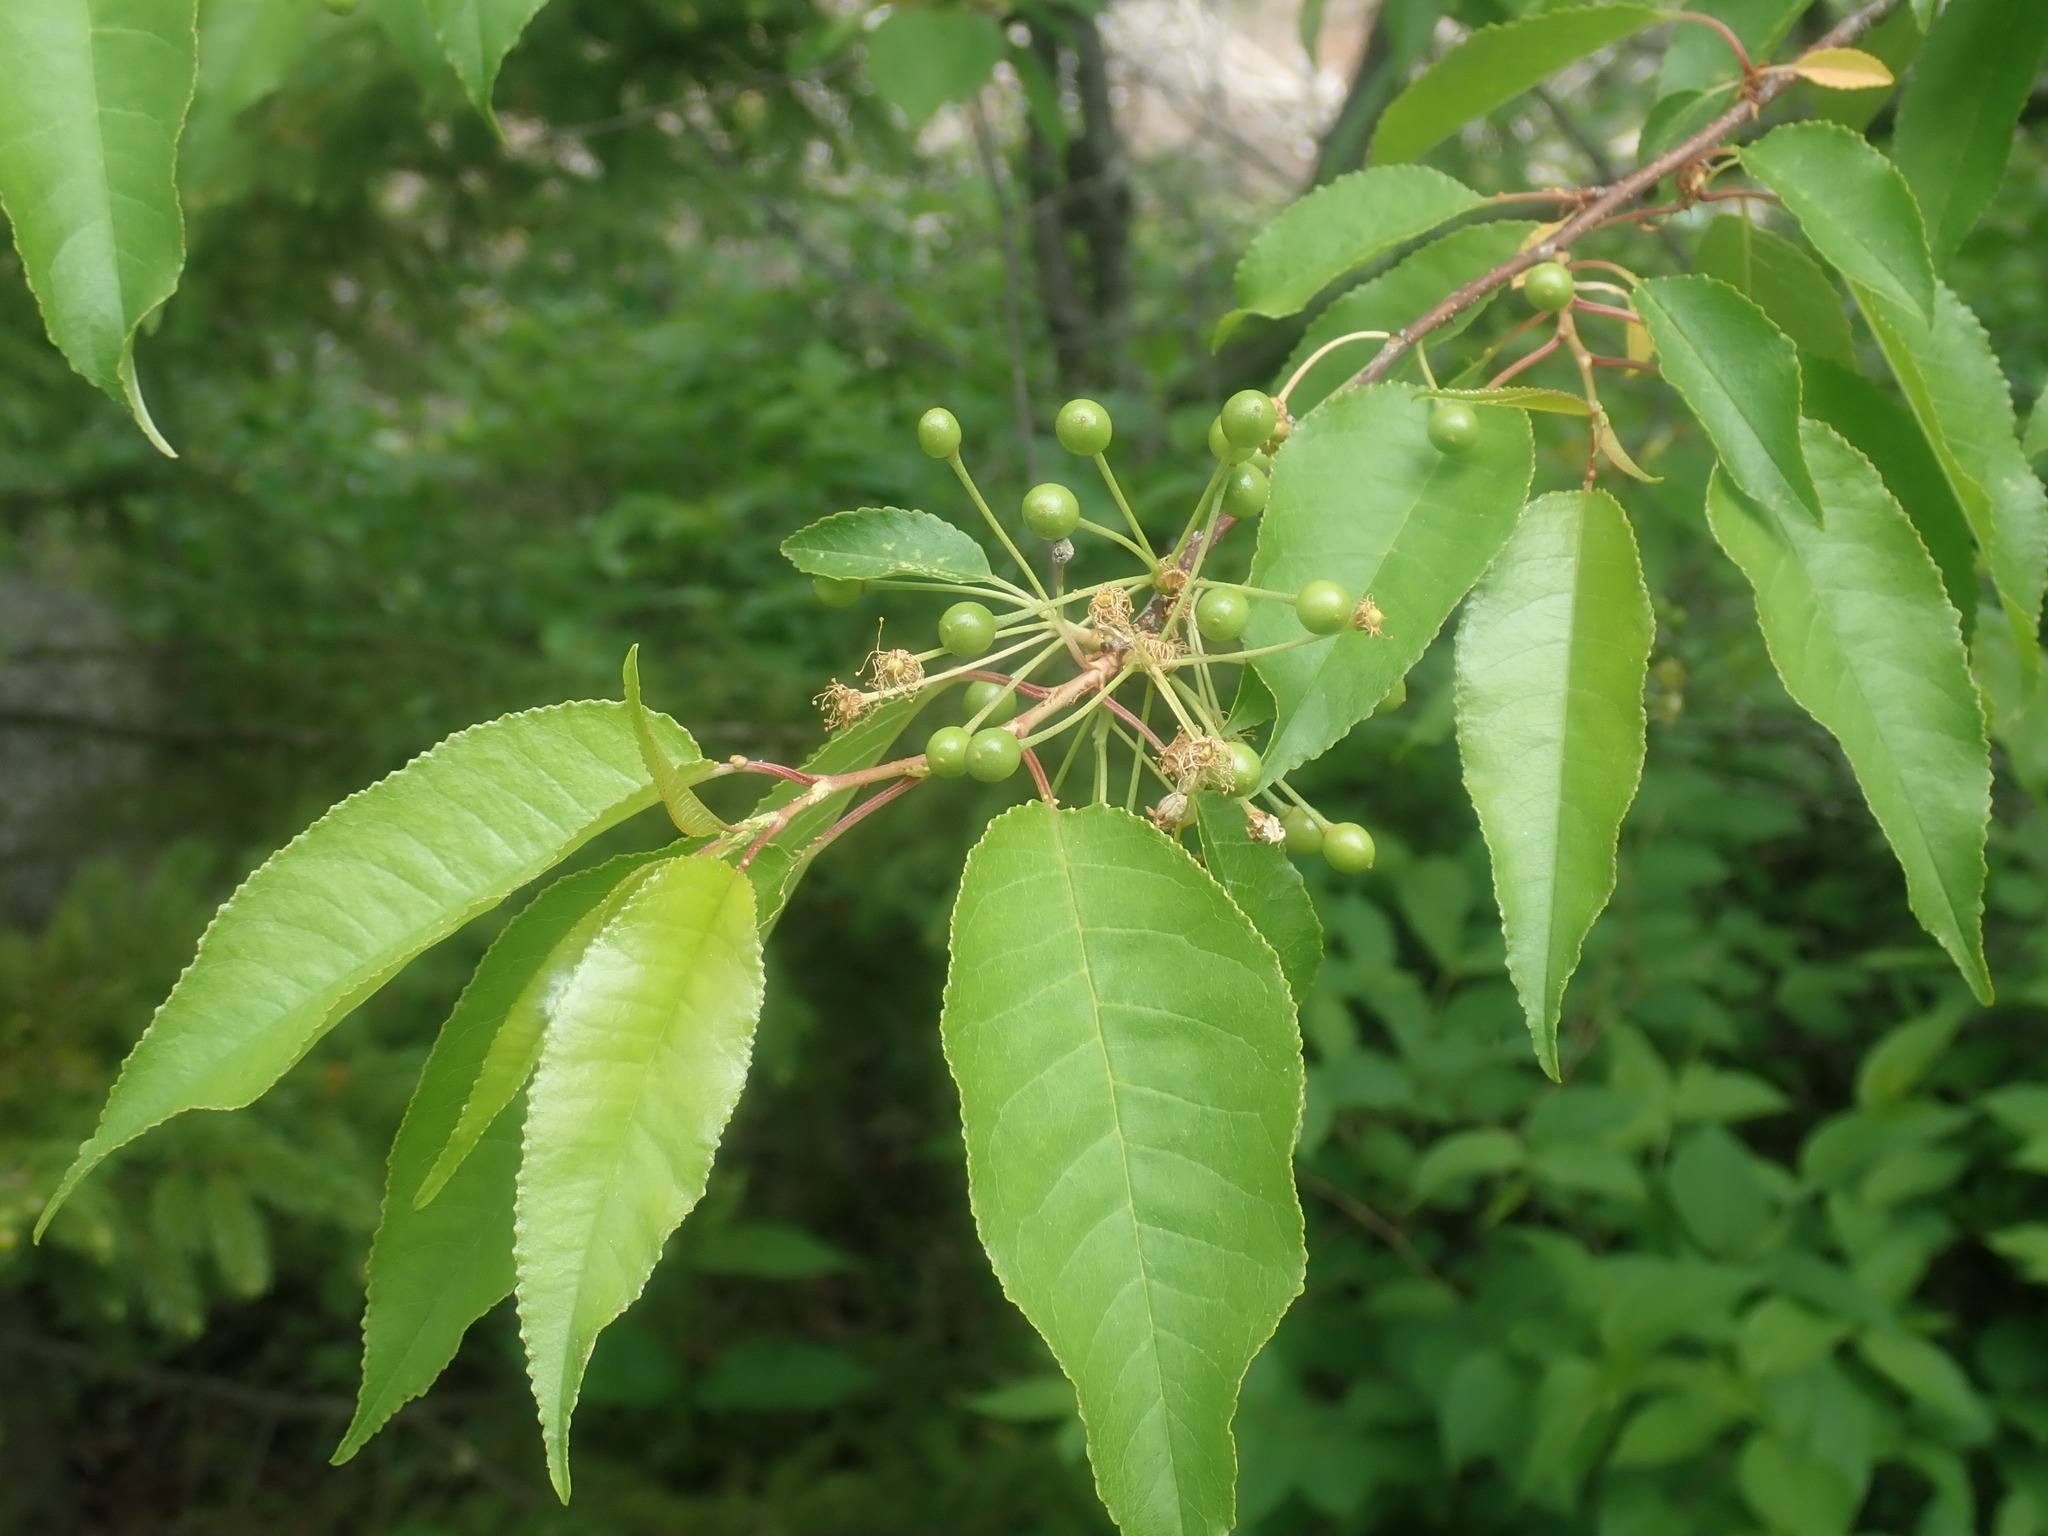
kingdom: Plantae
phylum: Tracheophyta
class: Magnoliopsida
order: Rosales
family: Rosaceae
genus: Prunus
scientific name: Prunus pensylvanica
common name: Pin cherry
